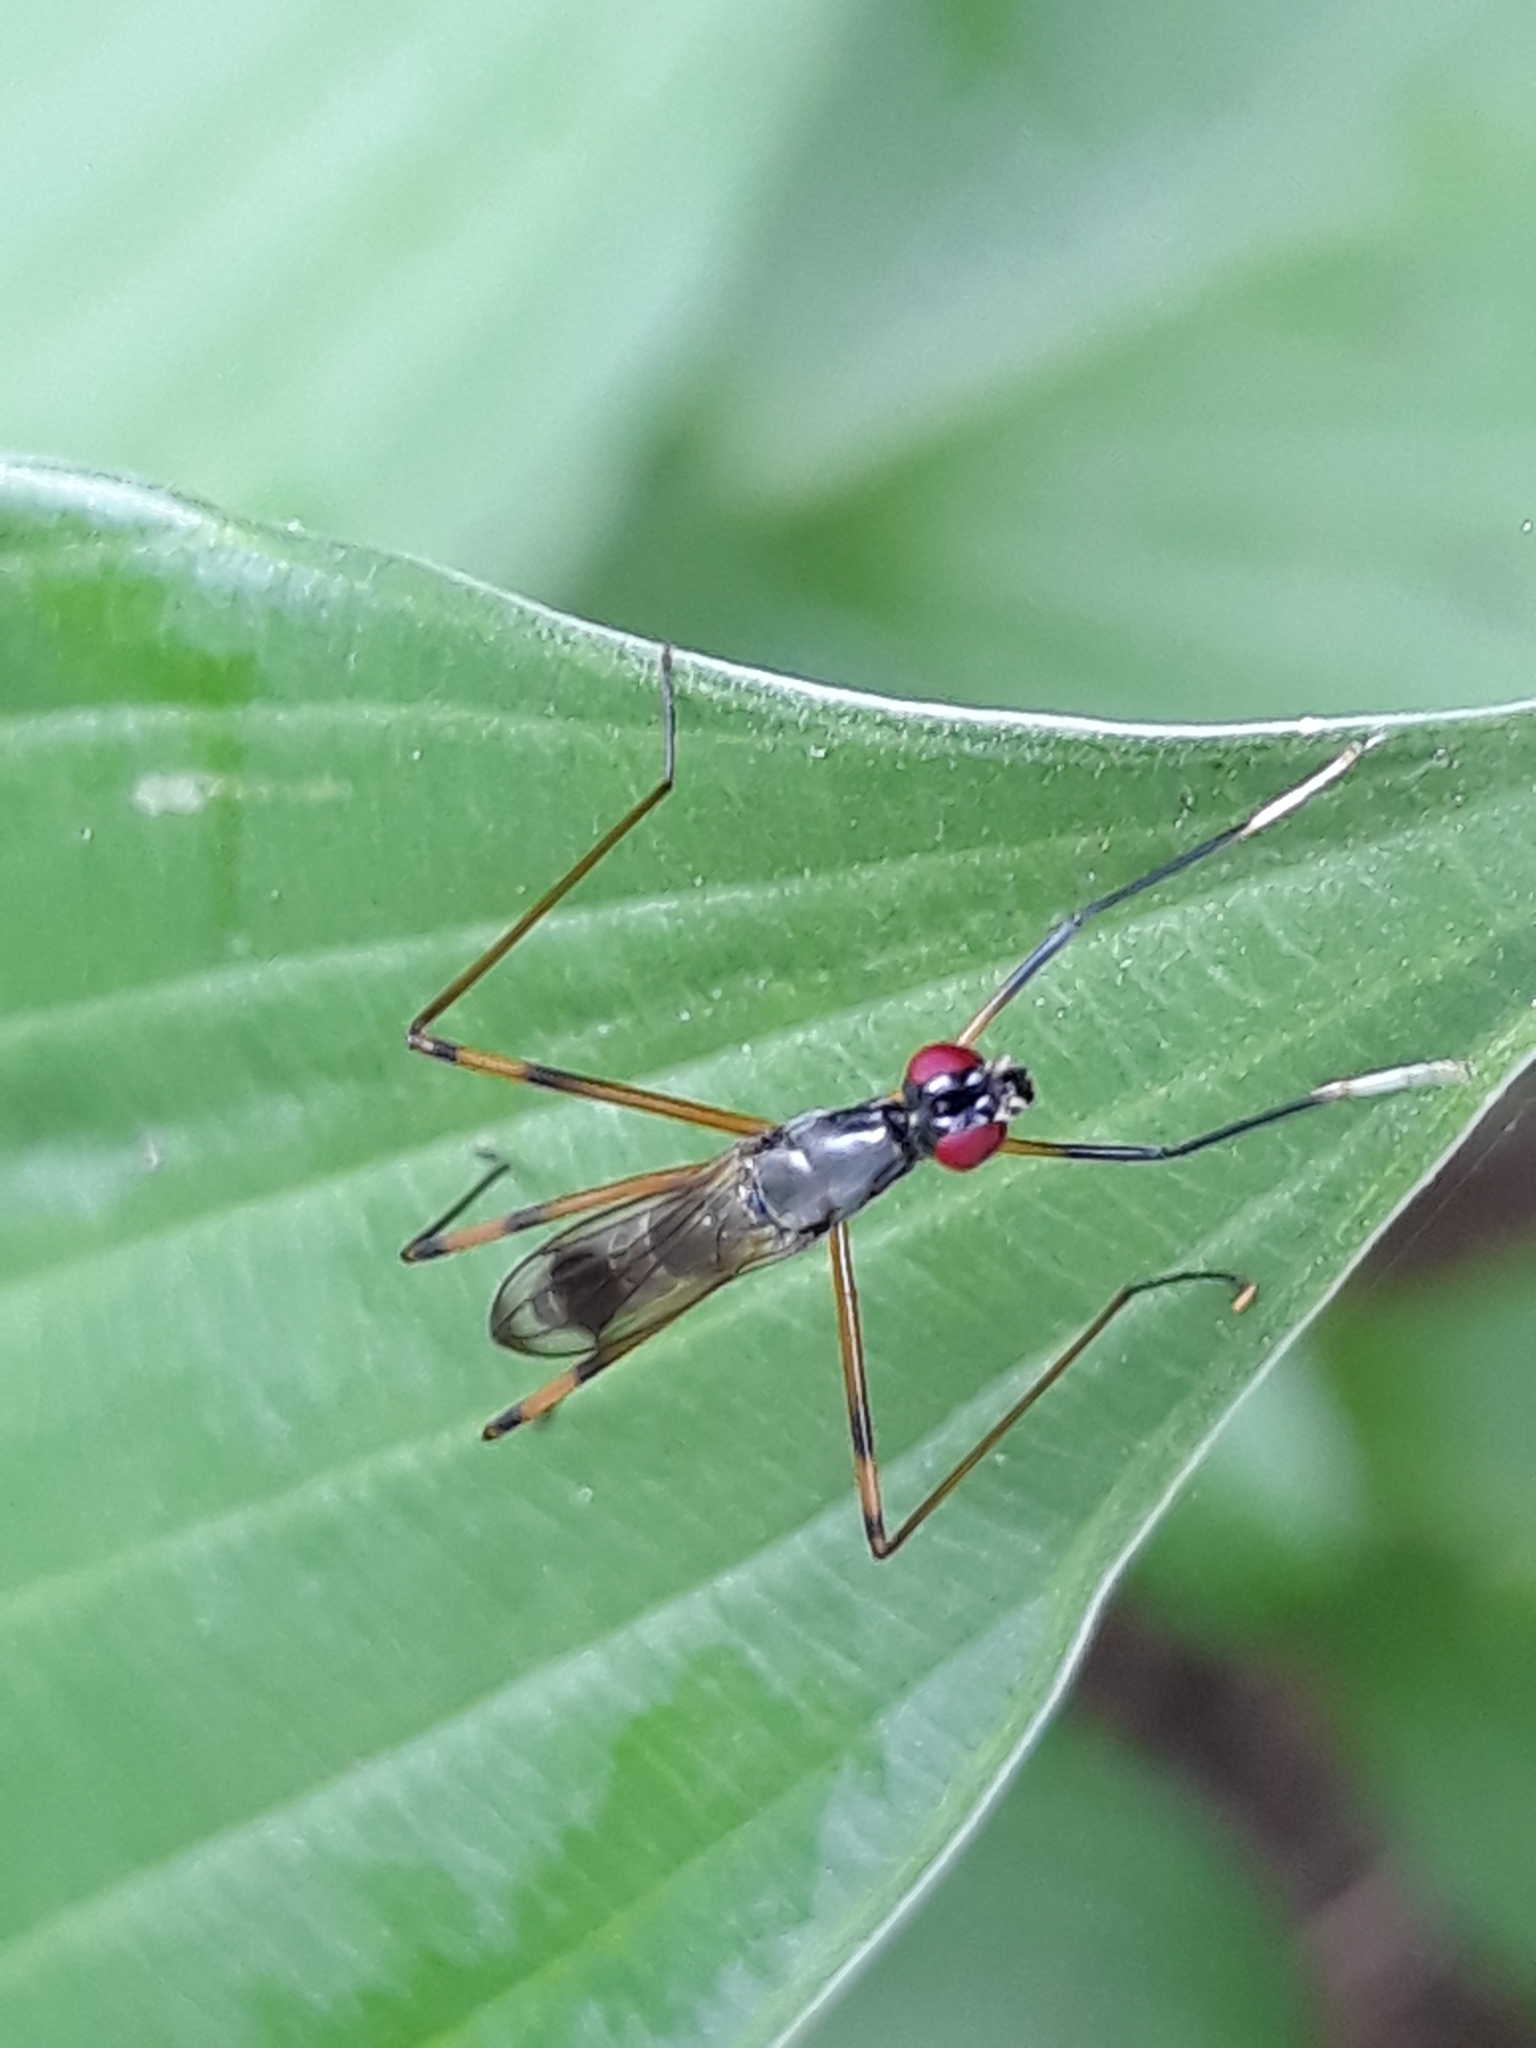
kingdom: Animalia
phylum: Arthropoda
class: Insecta
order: Diptera
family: Micropezidae
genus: Rainieria
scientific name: Rainieria antennaepes
